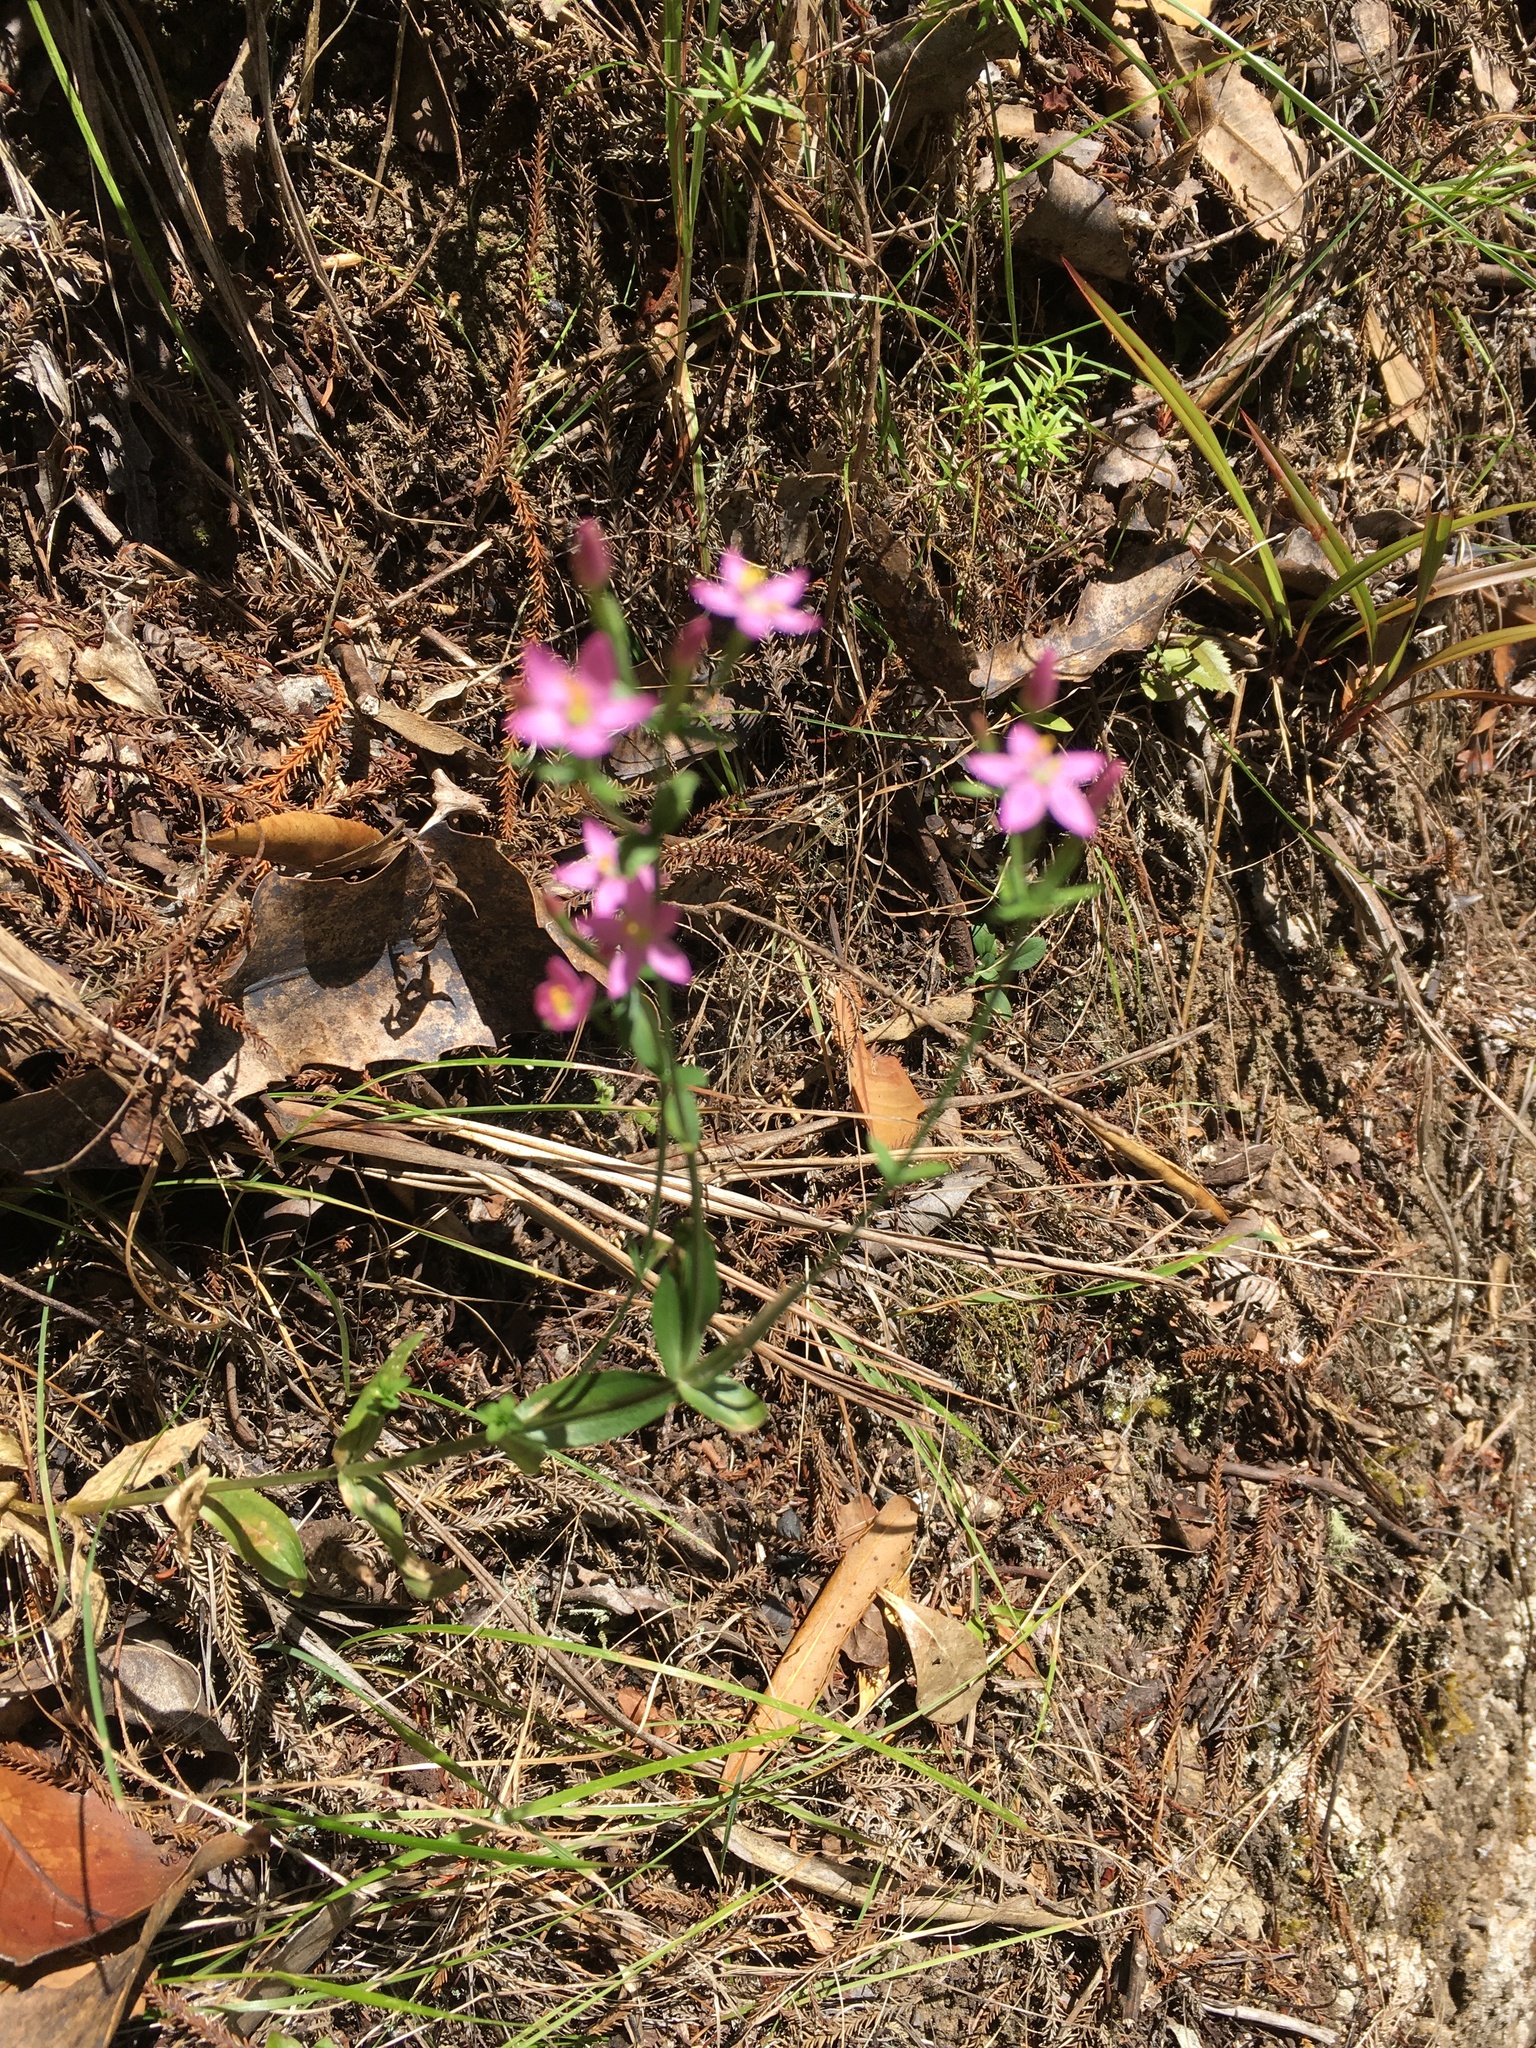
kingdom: Plantae
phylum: Tracheophyta
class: Magnoliopsida
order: Gentianales
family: Gentianaceae
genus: Centaurium
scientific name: Centaurium erythraea
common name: Common centaury
